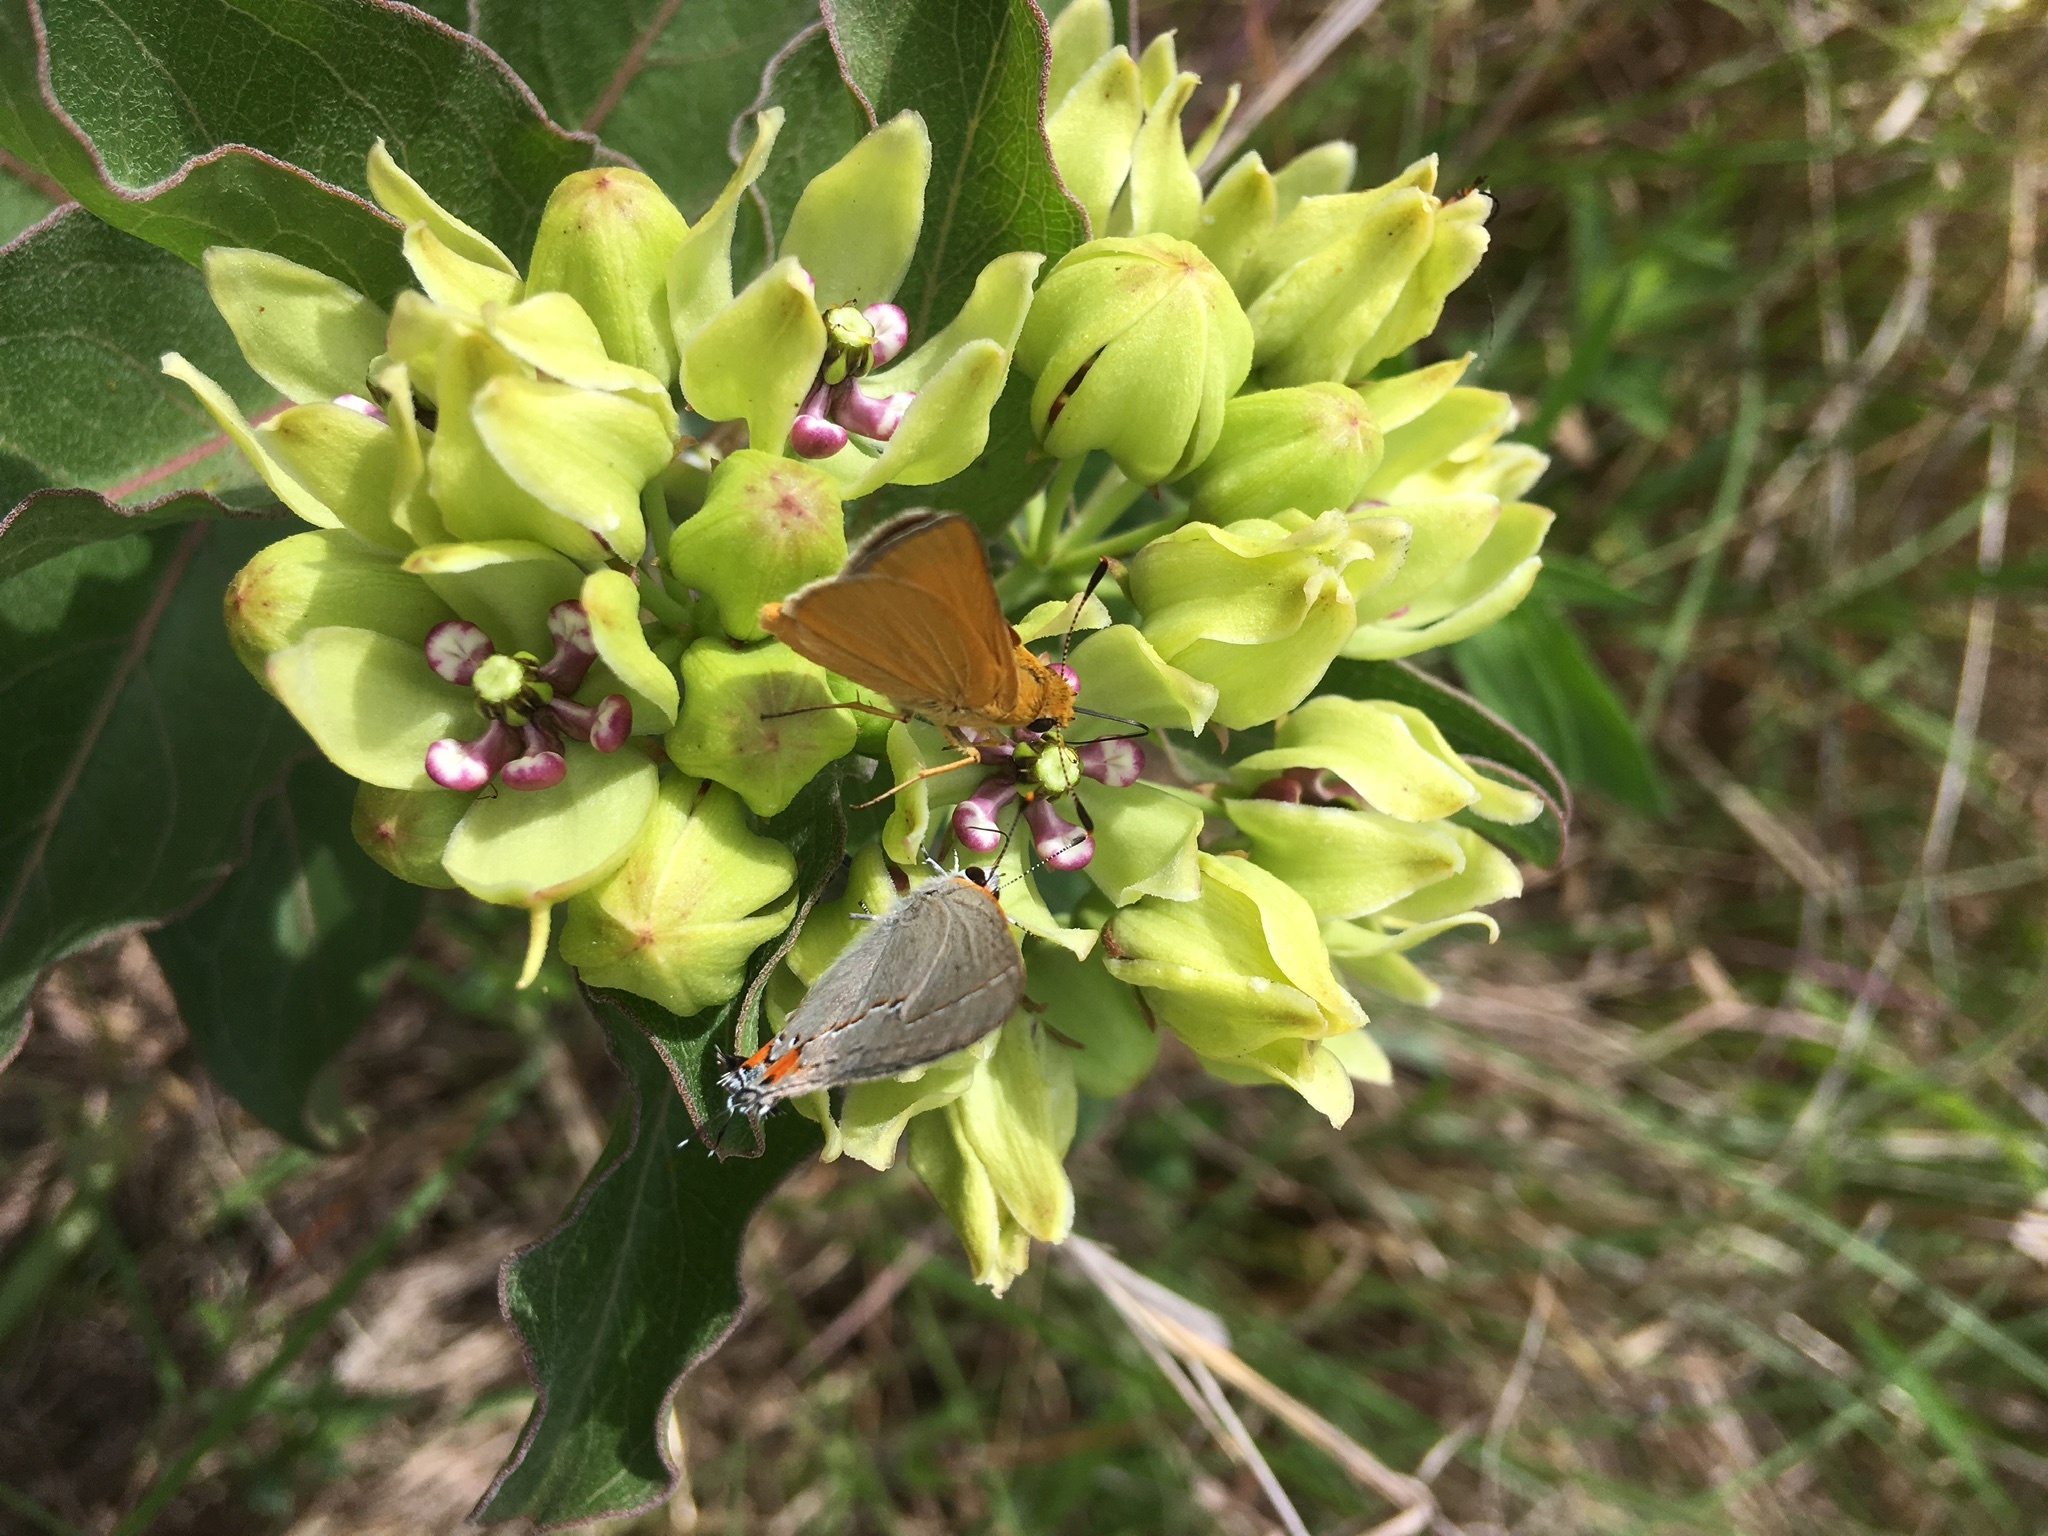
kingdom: Animalia
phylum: Arthropoda
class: Insecta
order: Lepidoptera
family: Lycaenidae
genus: Strymon
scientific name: Strymon melinus
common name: Gray hairstreak
